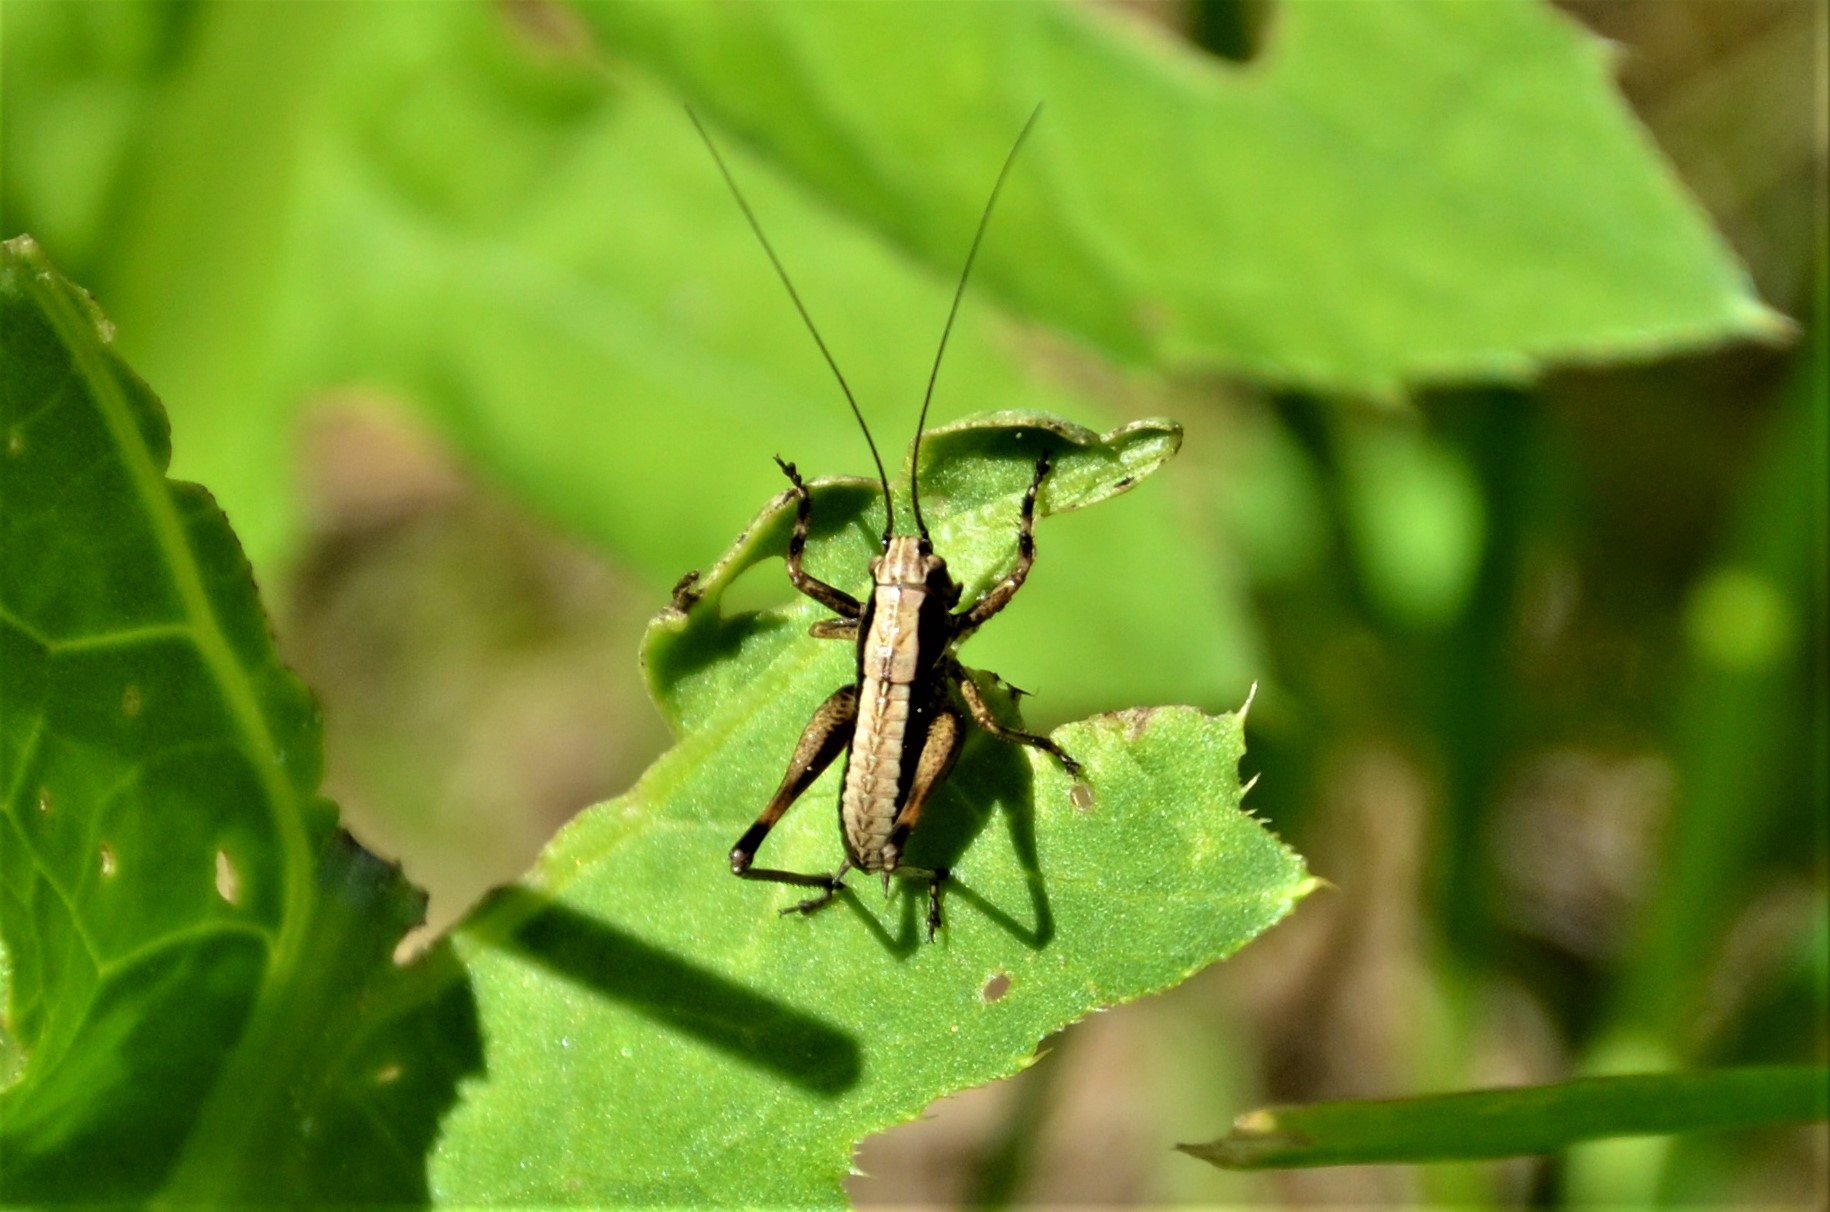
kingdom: Animalia
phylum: Arthropoda
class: Insecta
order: Orthoptera
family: Tettigoniidae
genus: Pholidoptera
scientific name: Pholidoptera griseoaptera
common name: Dark bush-cricket
